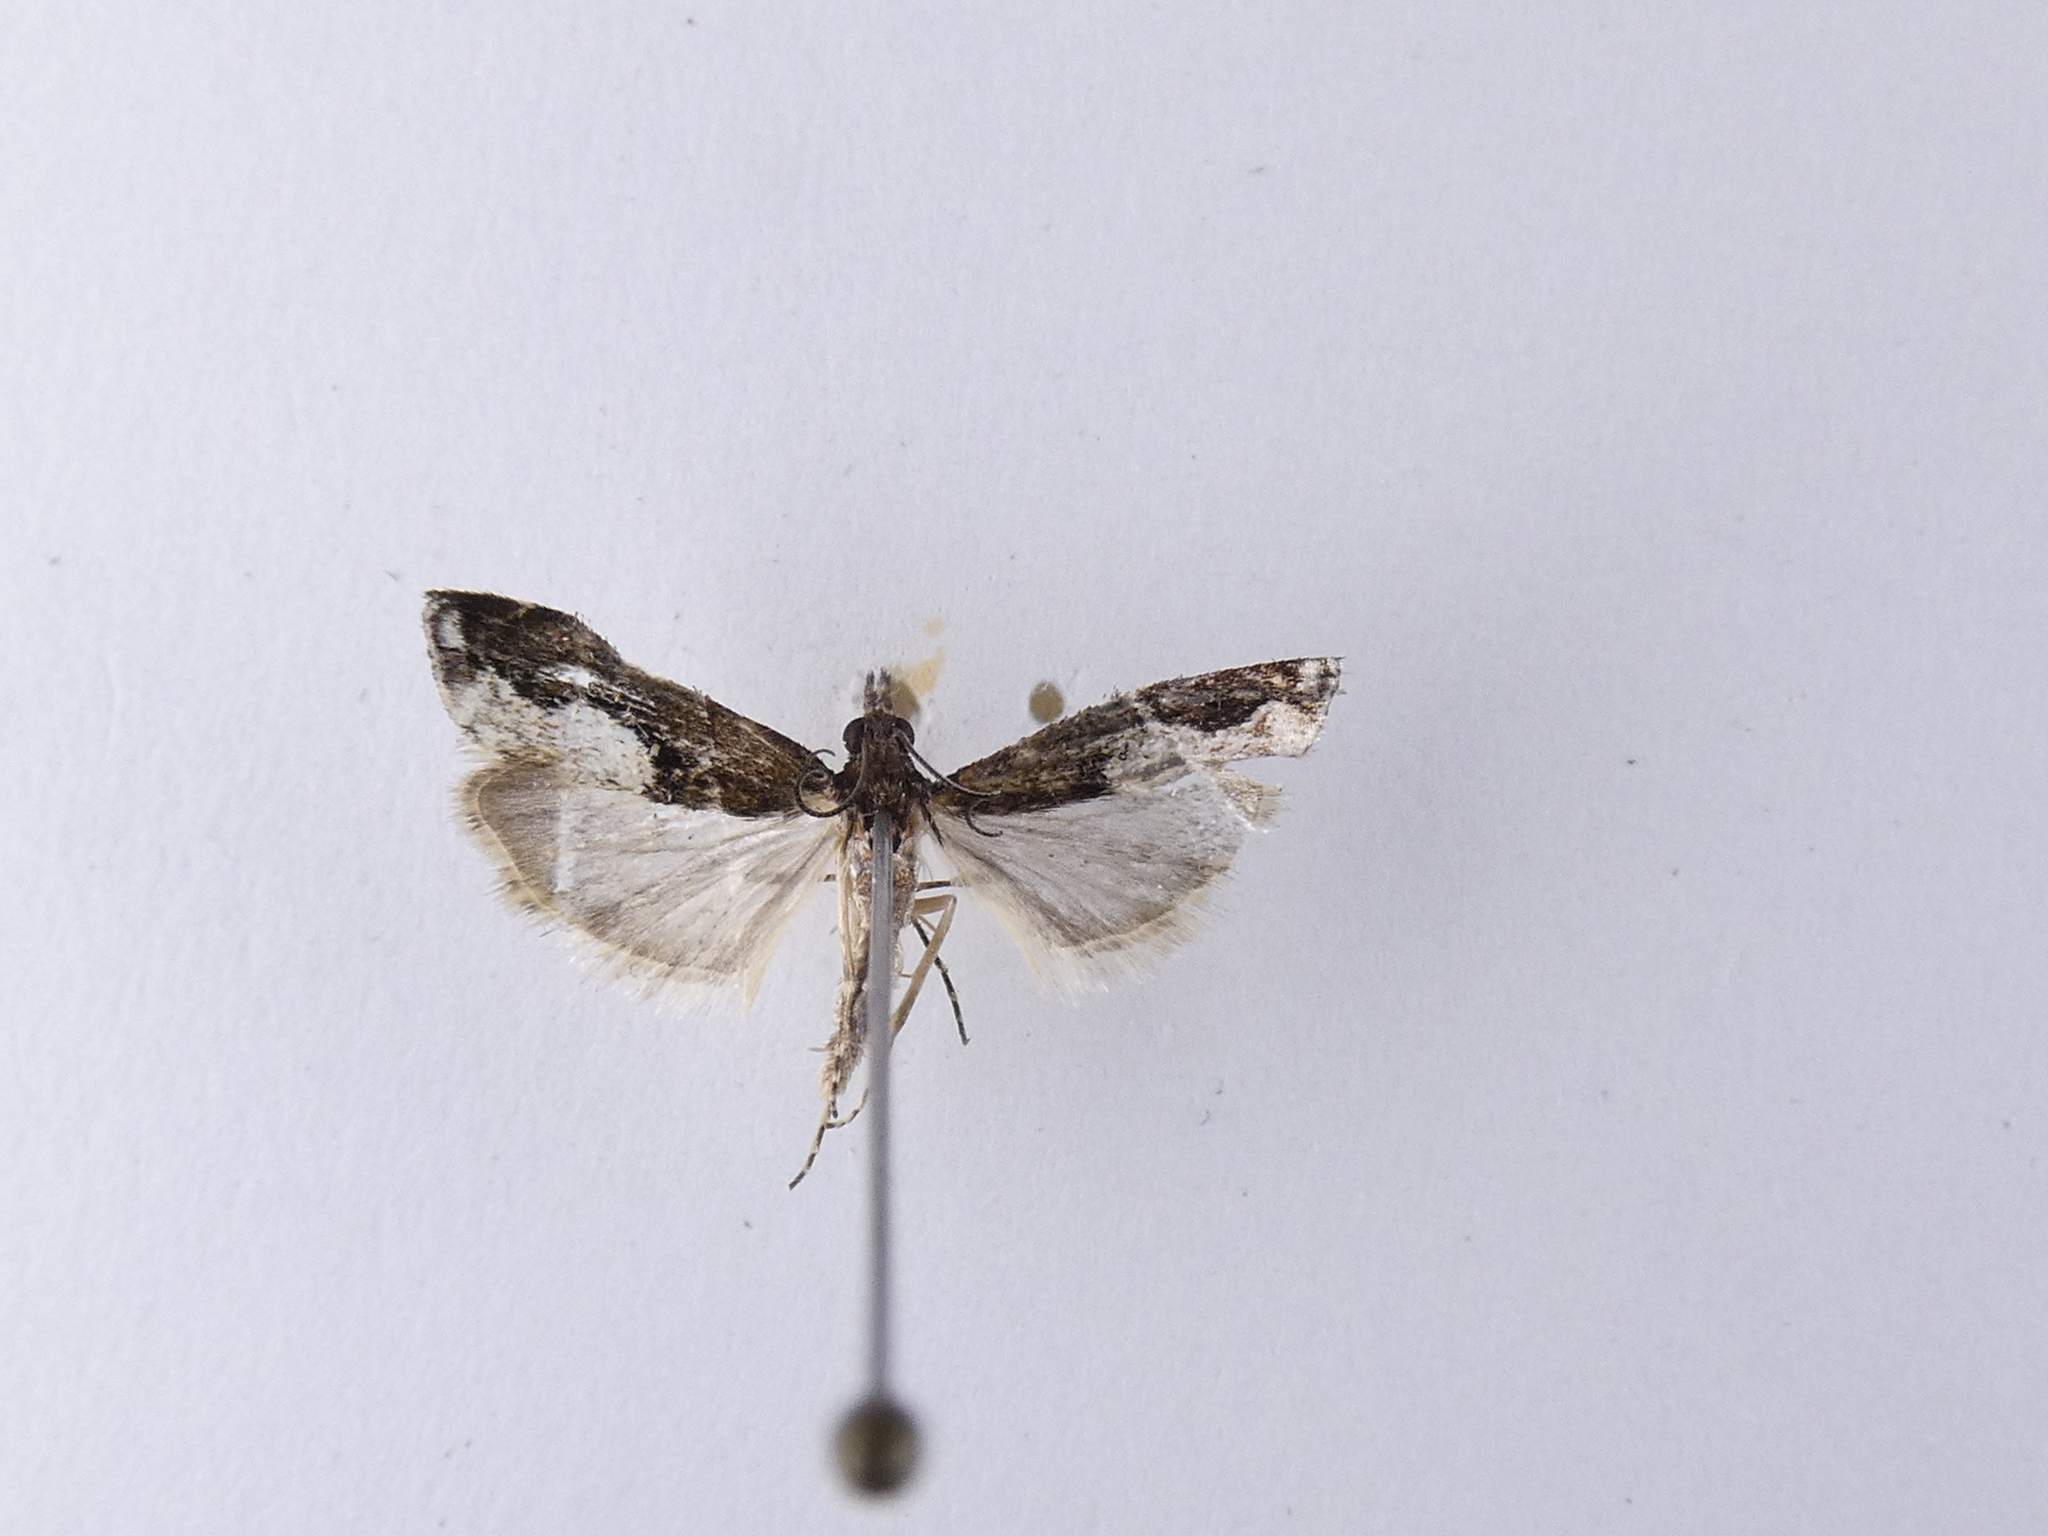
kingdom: Animalia
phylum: Arthropoda
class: Insecta
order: Lepidoptera
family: Crambidae
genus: Eudonia
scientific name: Eudonia hemiplaca
